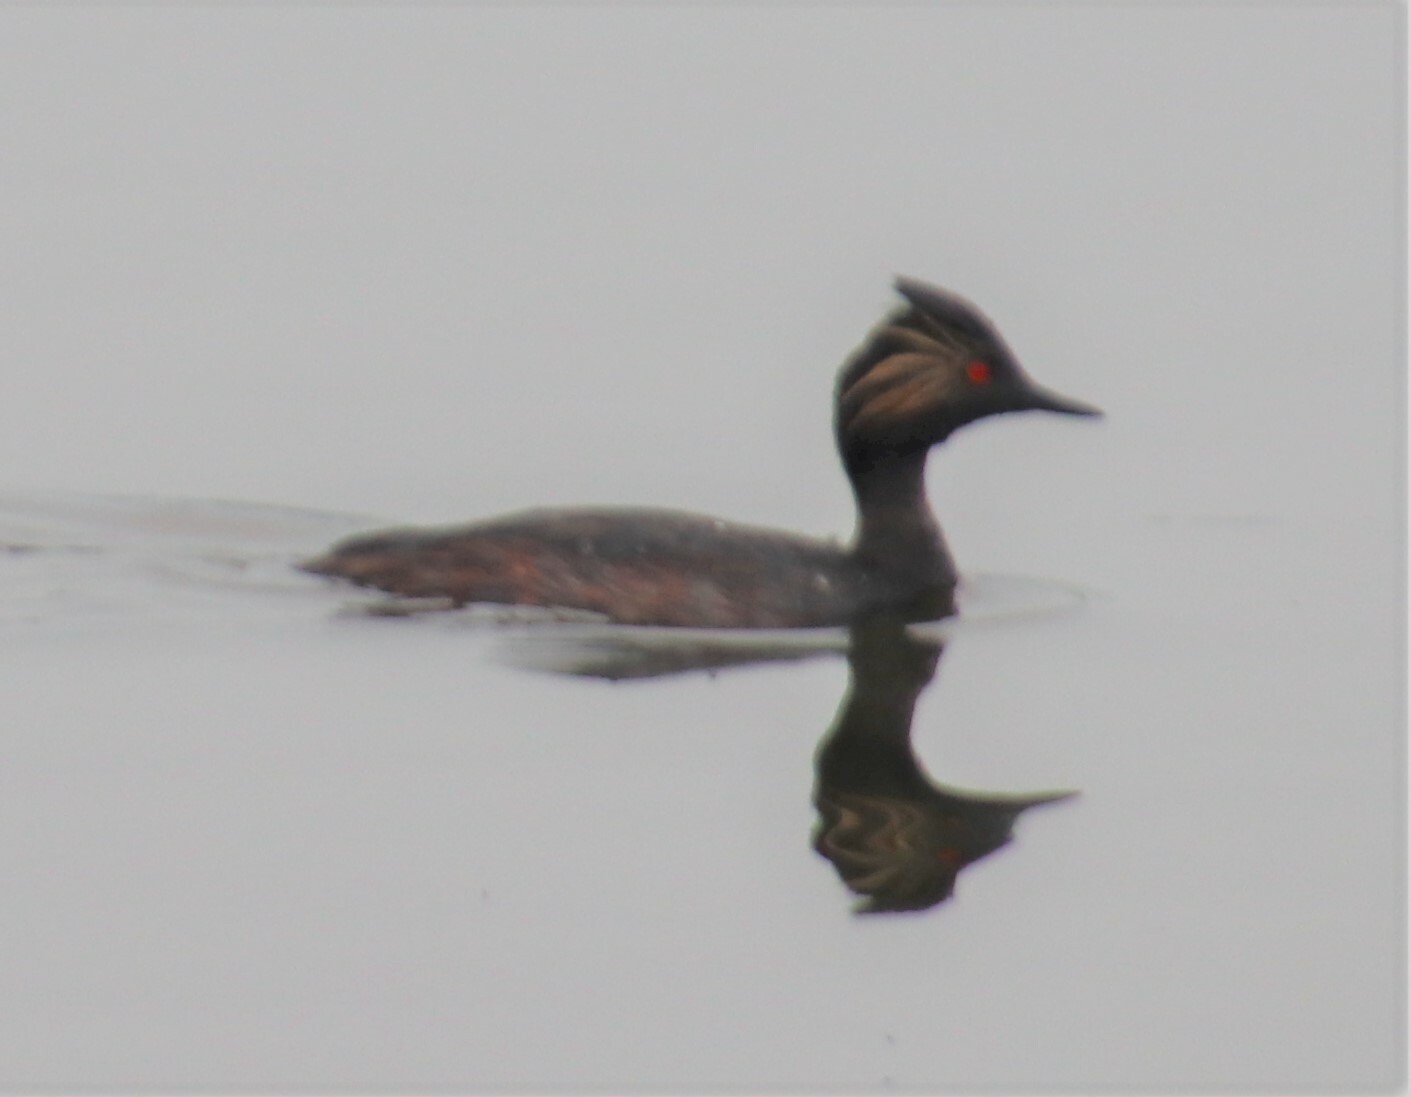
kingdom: Animalia
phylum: Chordata
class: Aves
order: Podicipediformes
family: Podicipedidae
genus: Podiceps
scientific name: Podiceps nigricollis
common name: Black-necked grebe
